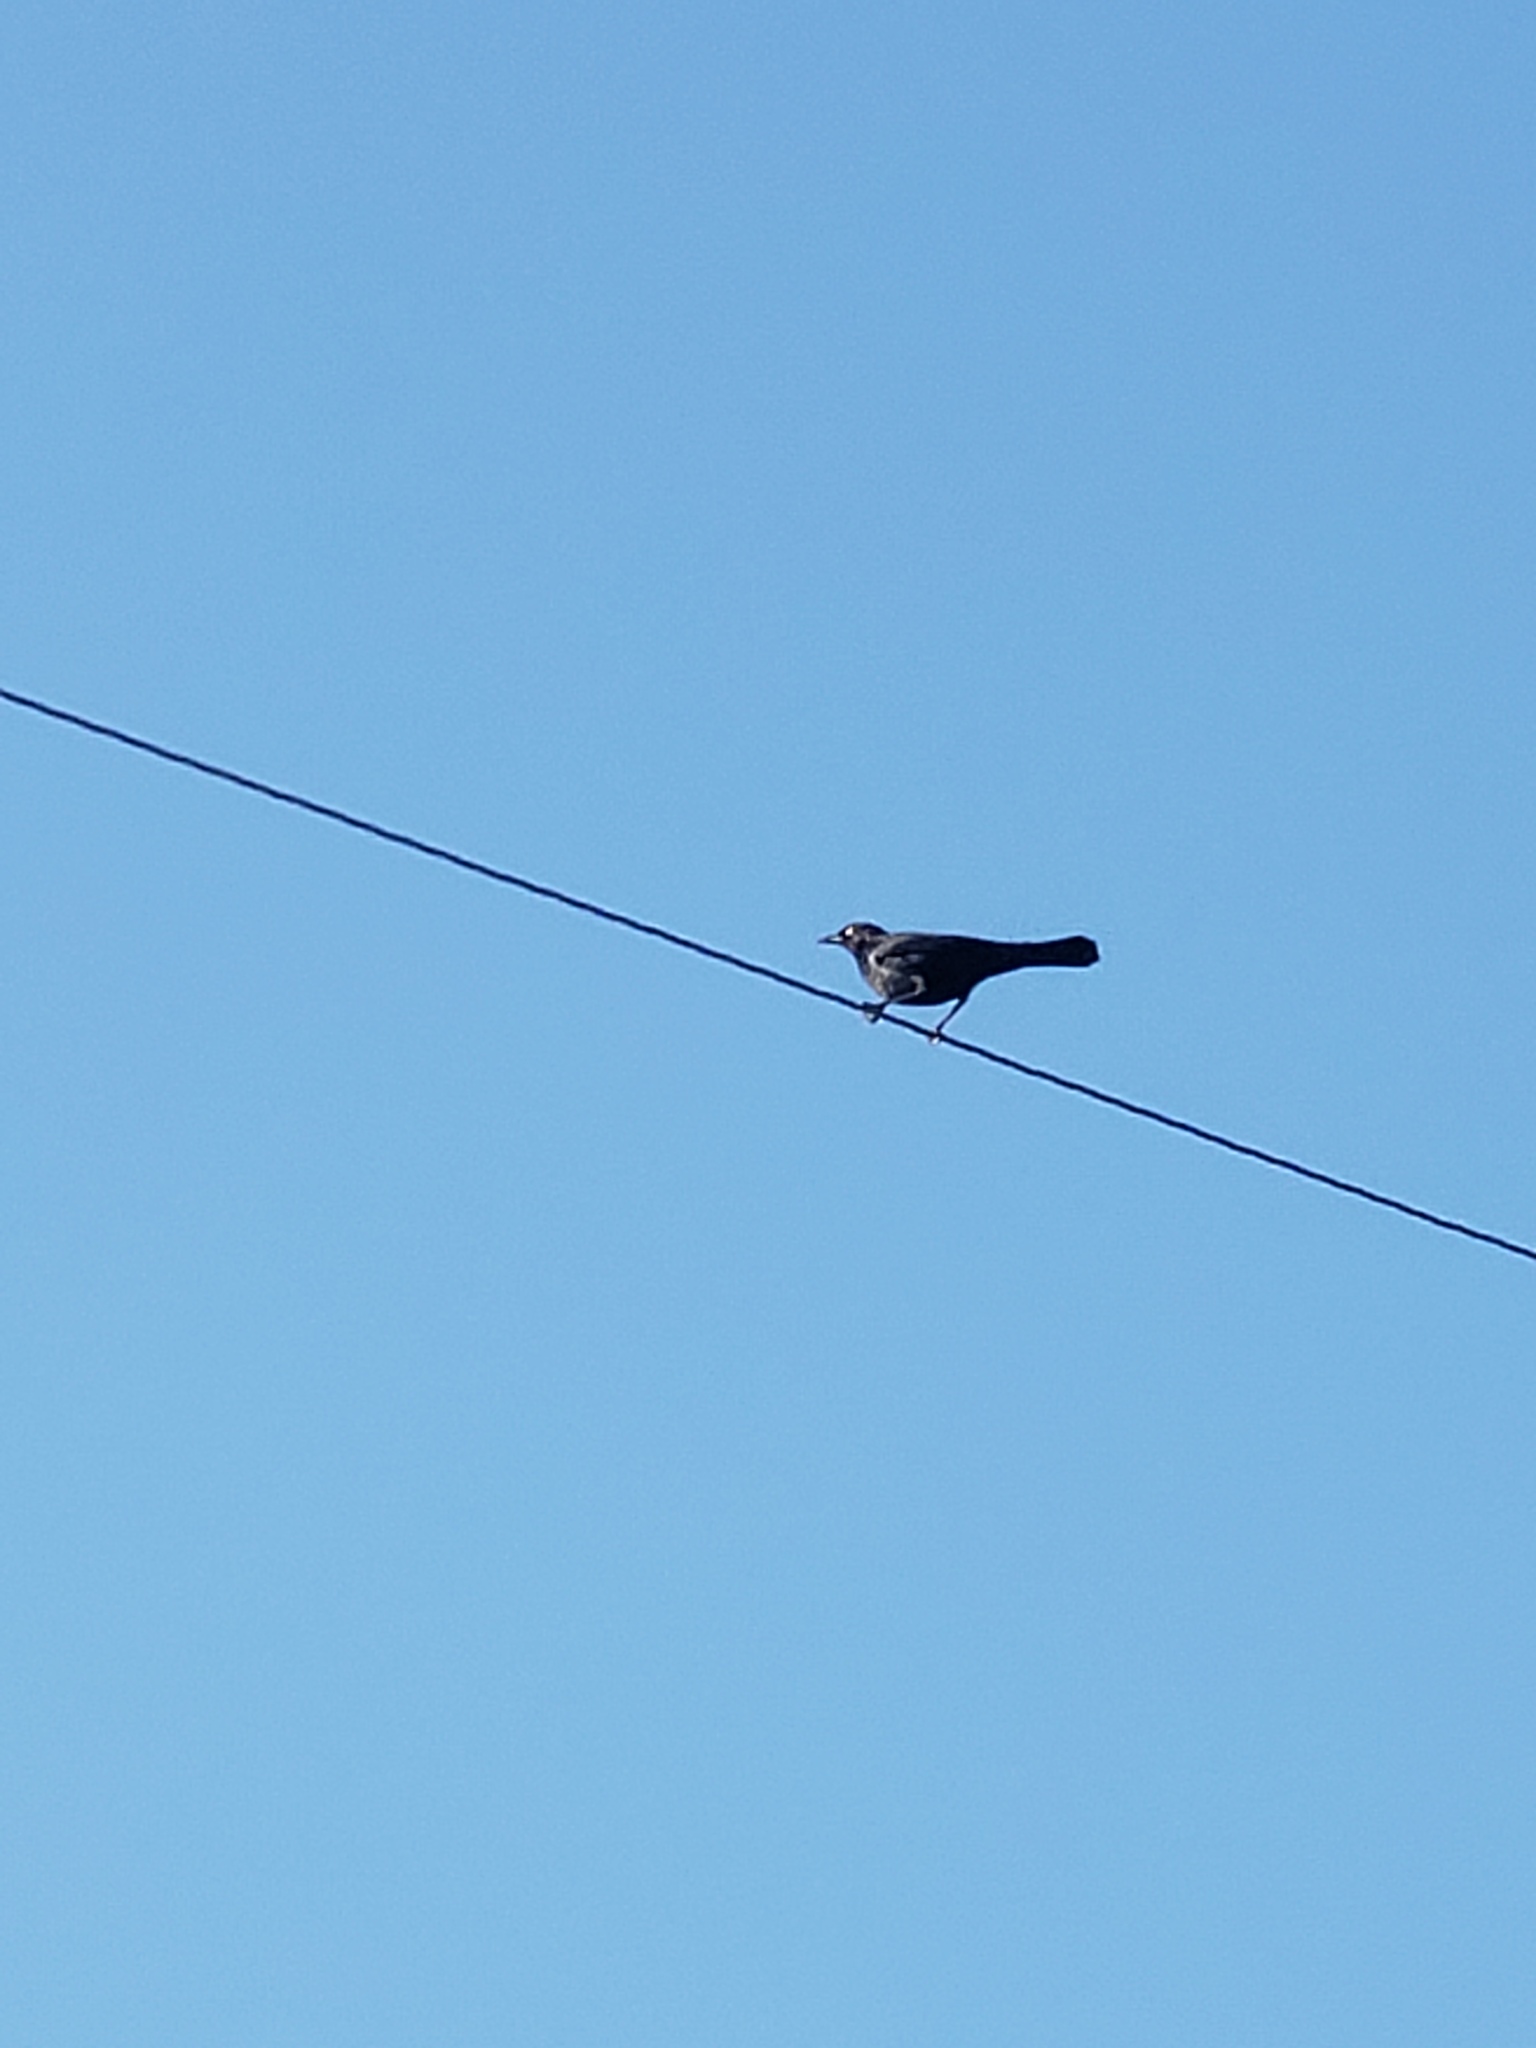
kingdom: Animalia
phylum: Chordata
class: Aves
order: Passeriformes
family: Icteridae
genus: Quiscalus
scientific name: Quiscalus quiscula
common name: Common grackle
